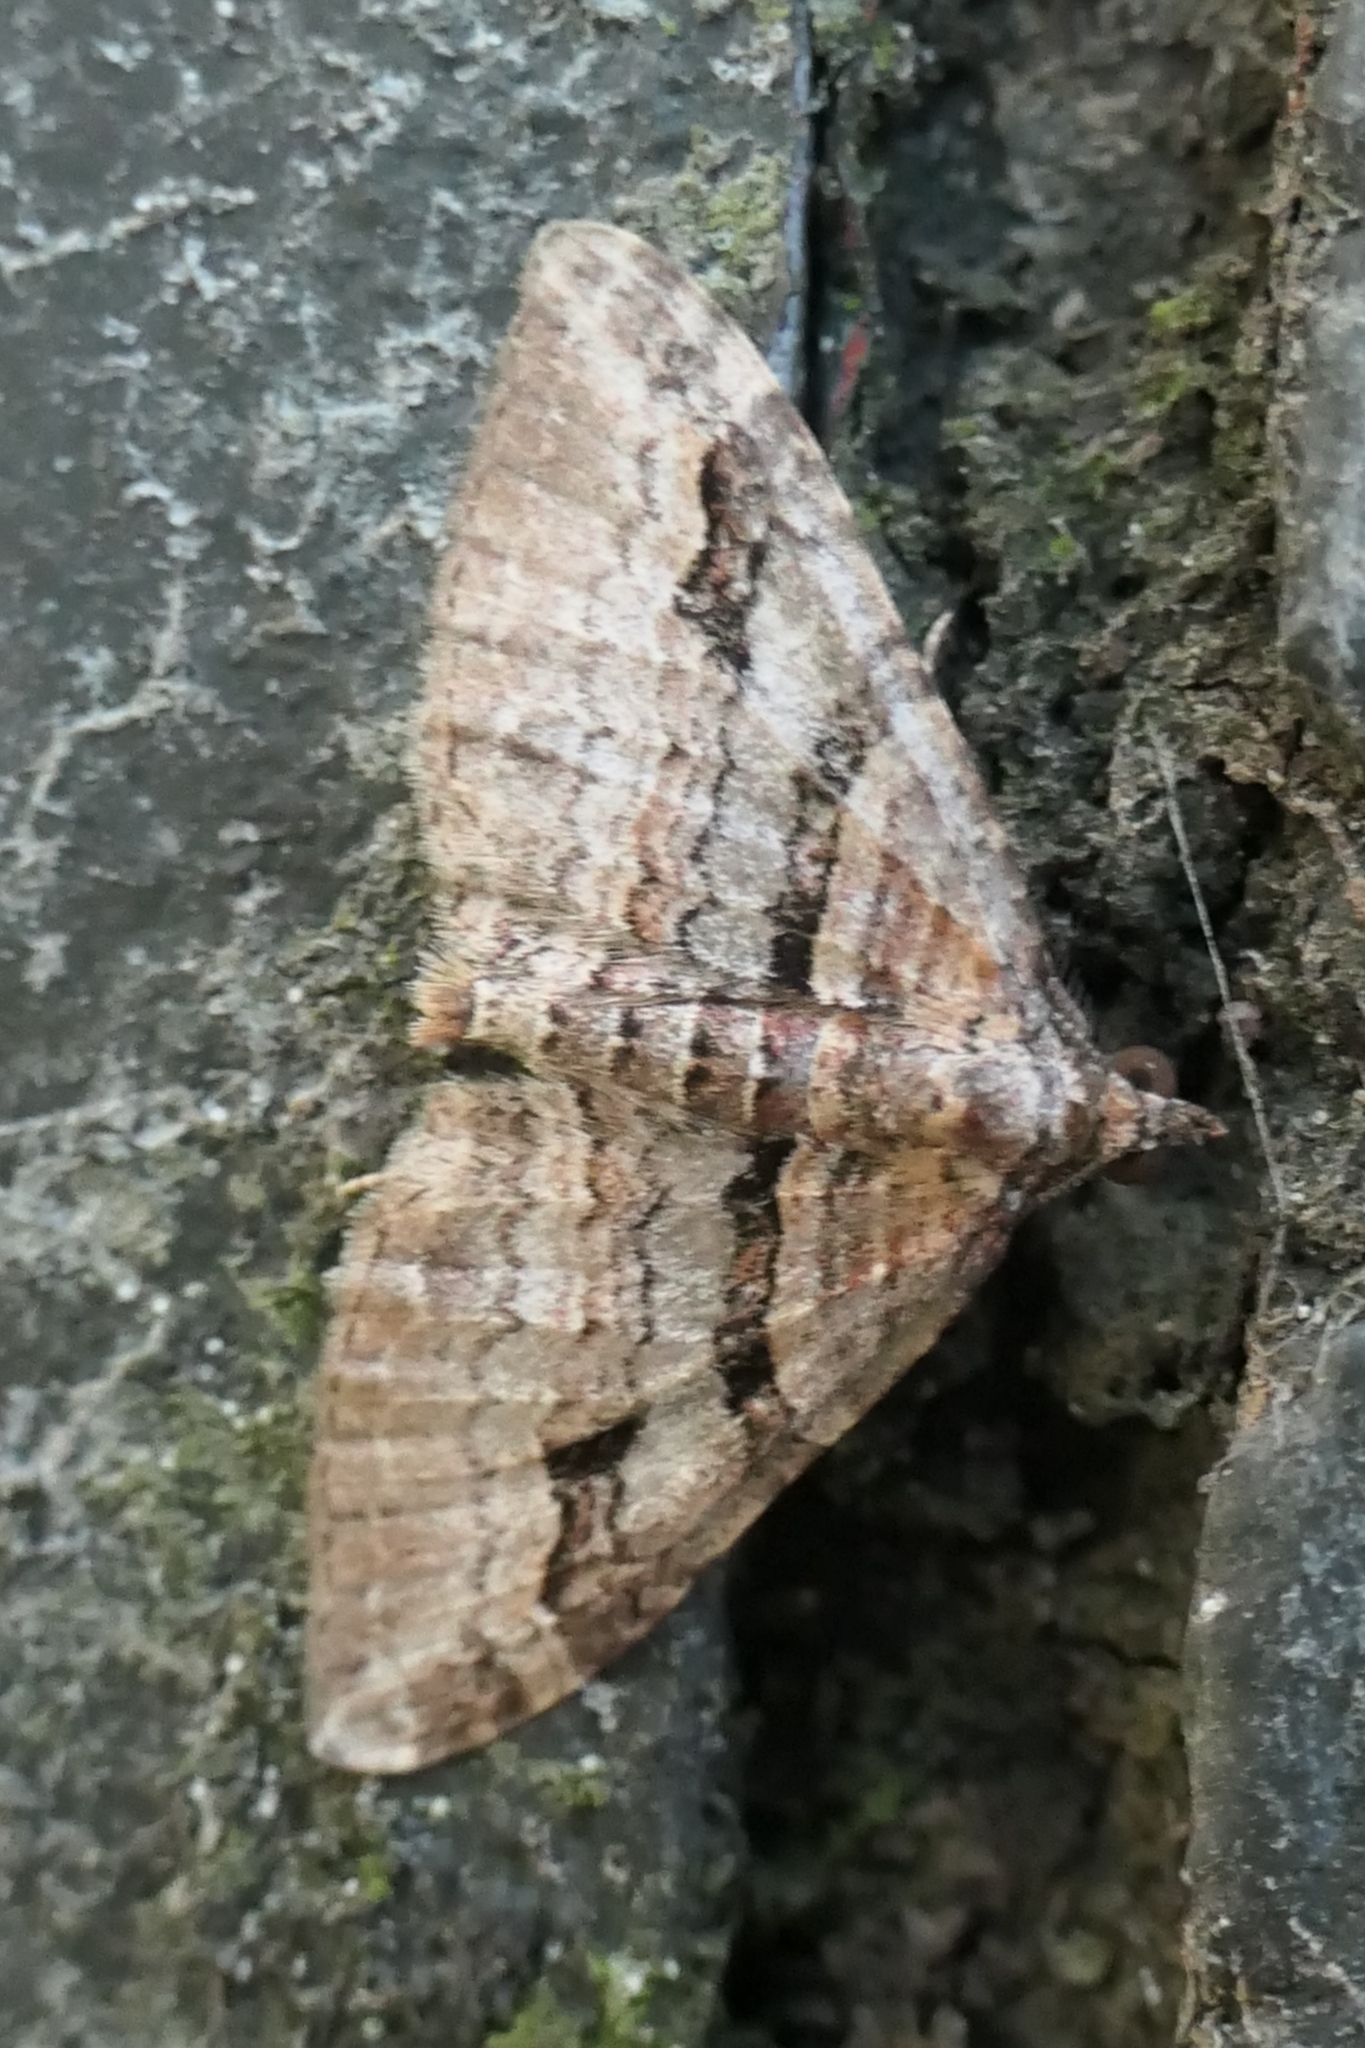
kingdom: Animalia
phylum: Arthropoda
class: Insecta
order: Lepidoptera
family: Geometridae
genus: Epyaxa
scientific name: Epyaxa lucidata
